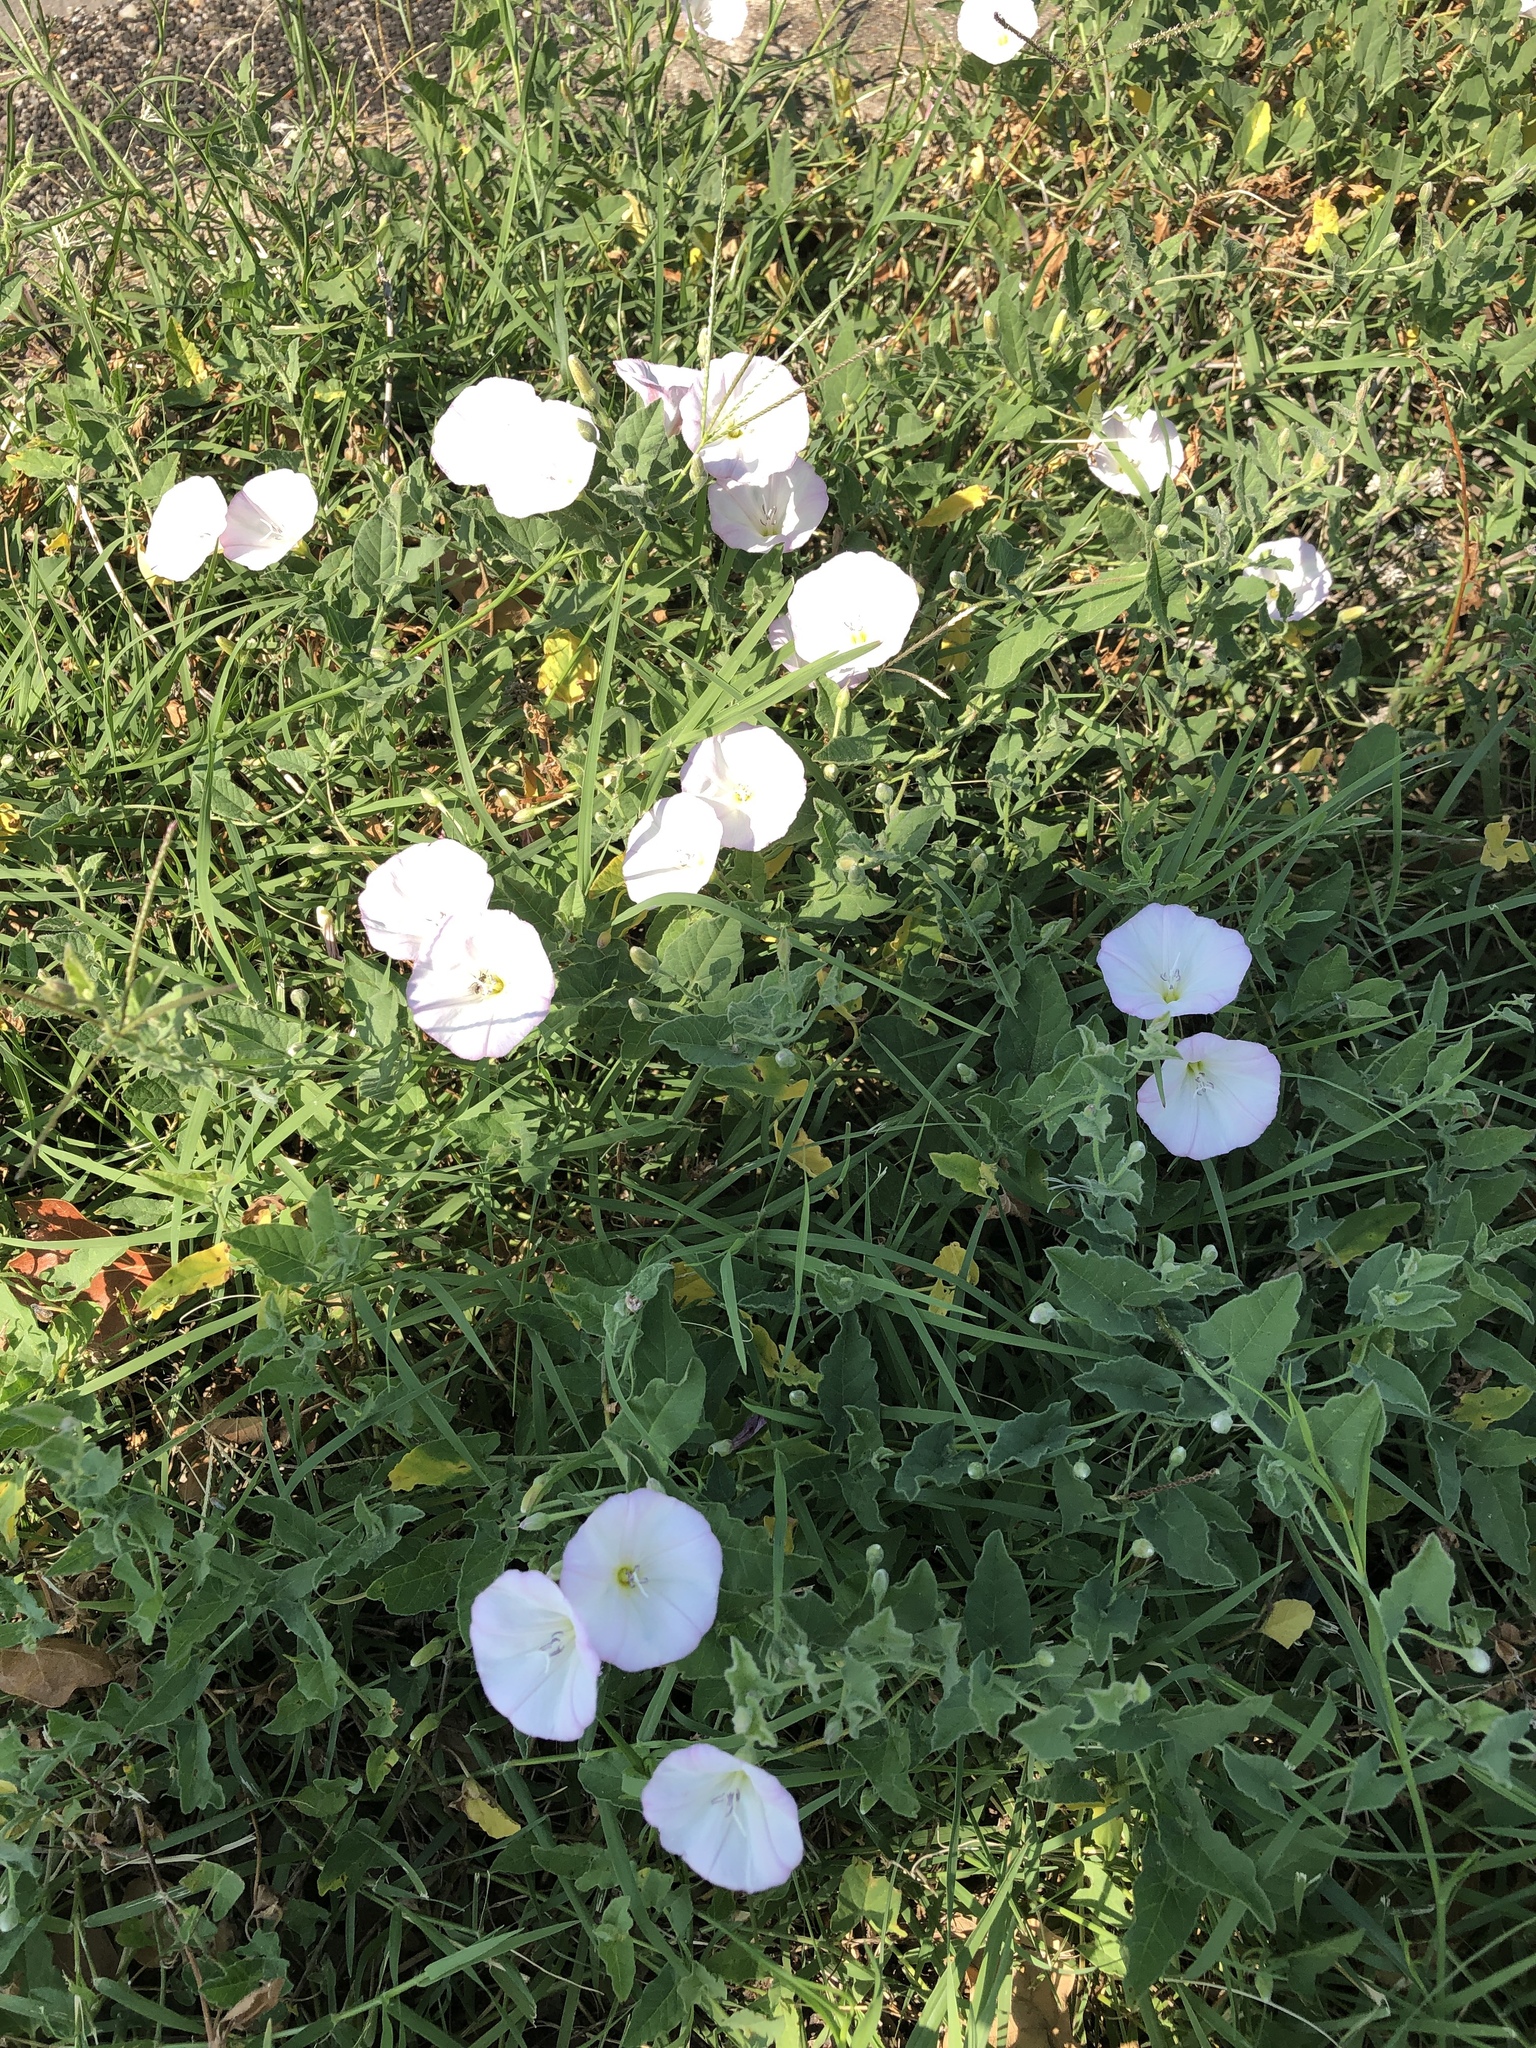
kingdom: Plantae
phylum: Tracheophyta
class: Magnoliopsida
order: Solanales
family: Convolvulaceae
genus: Convolvulus
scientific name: Convolvulus arvensis
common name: Field bindweed
